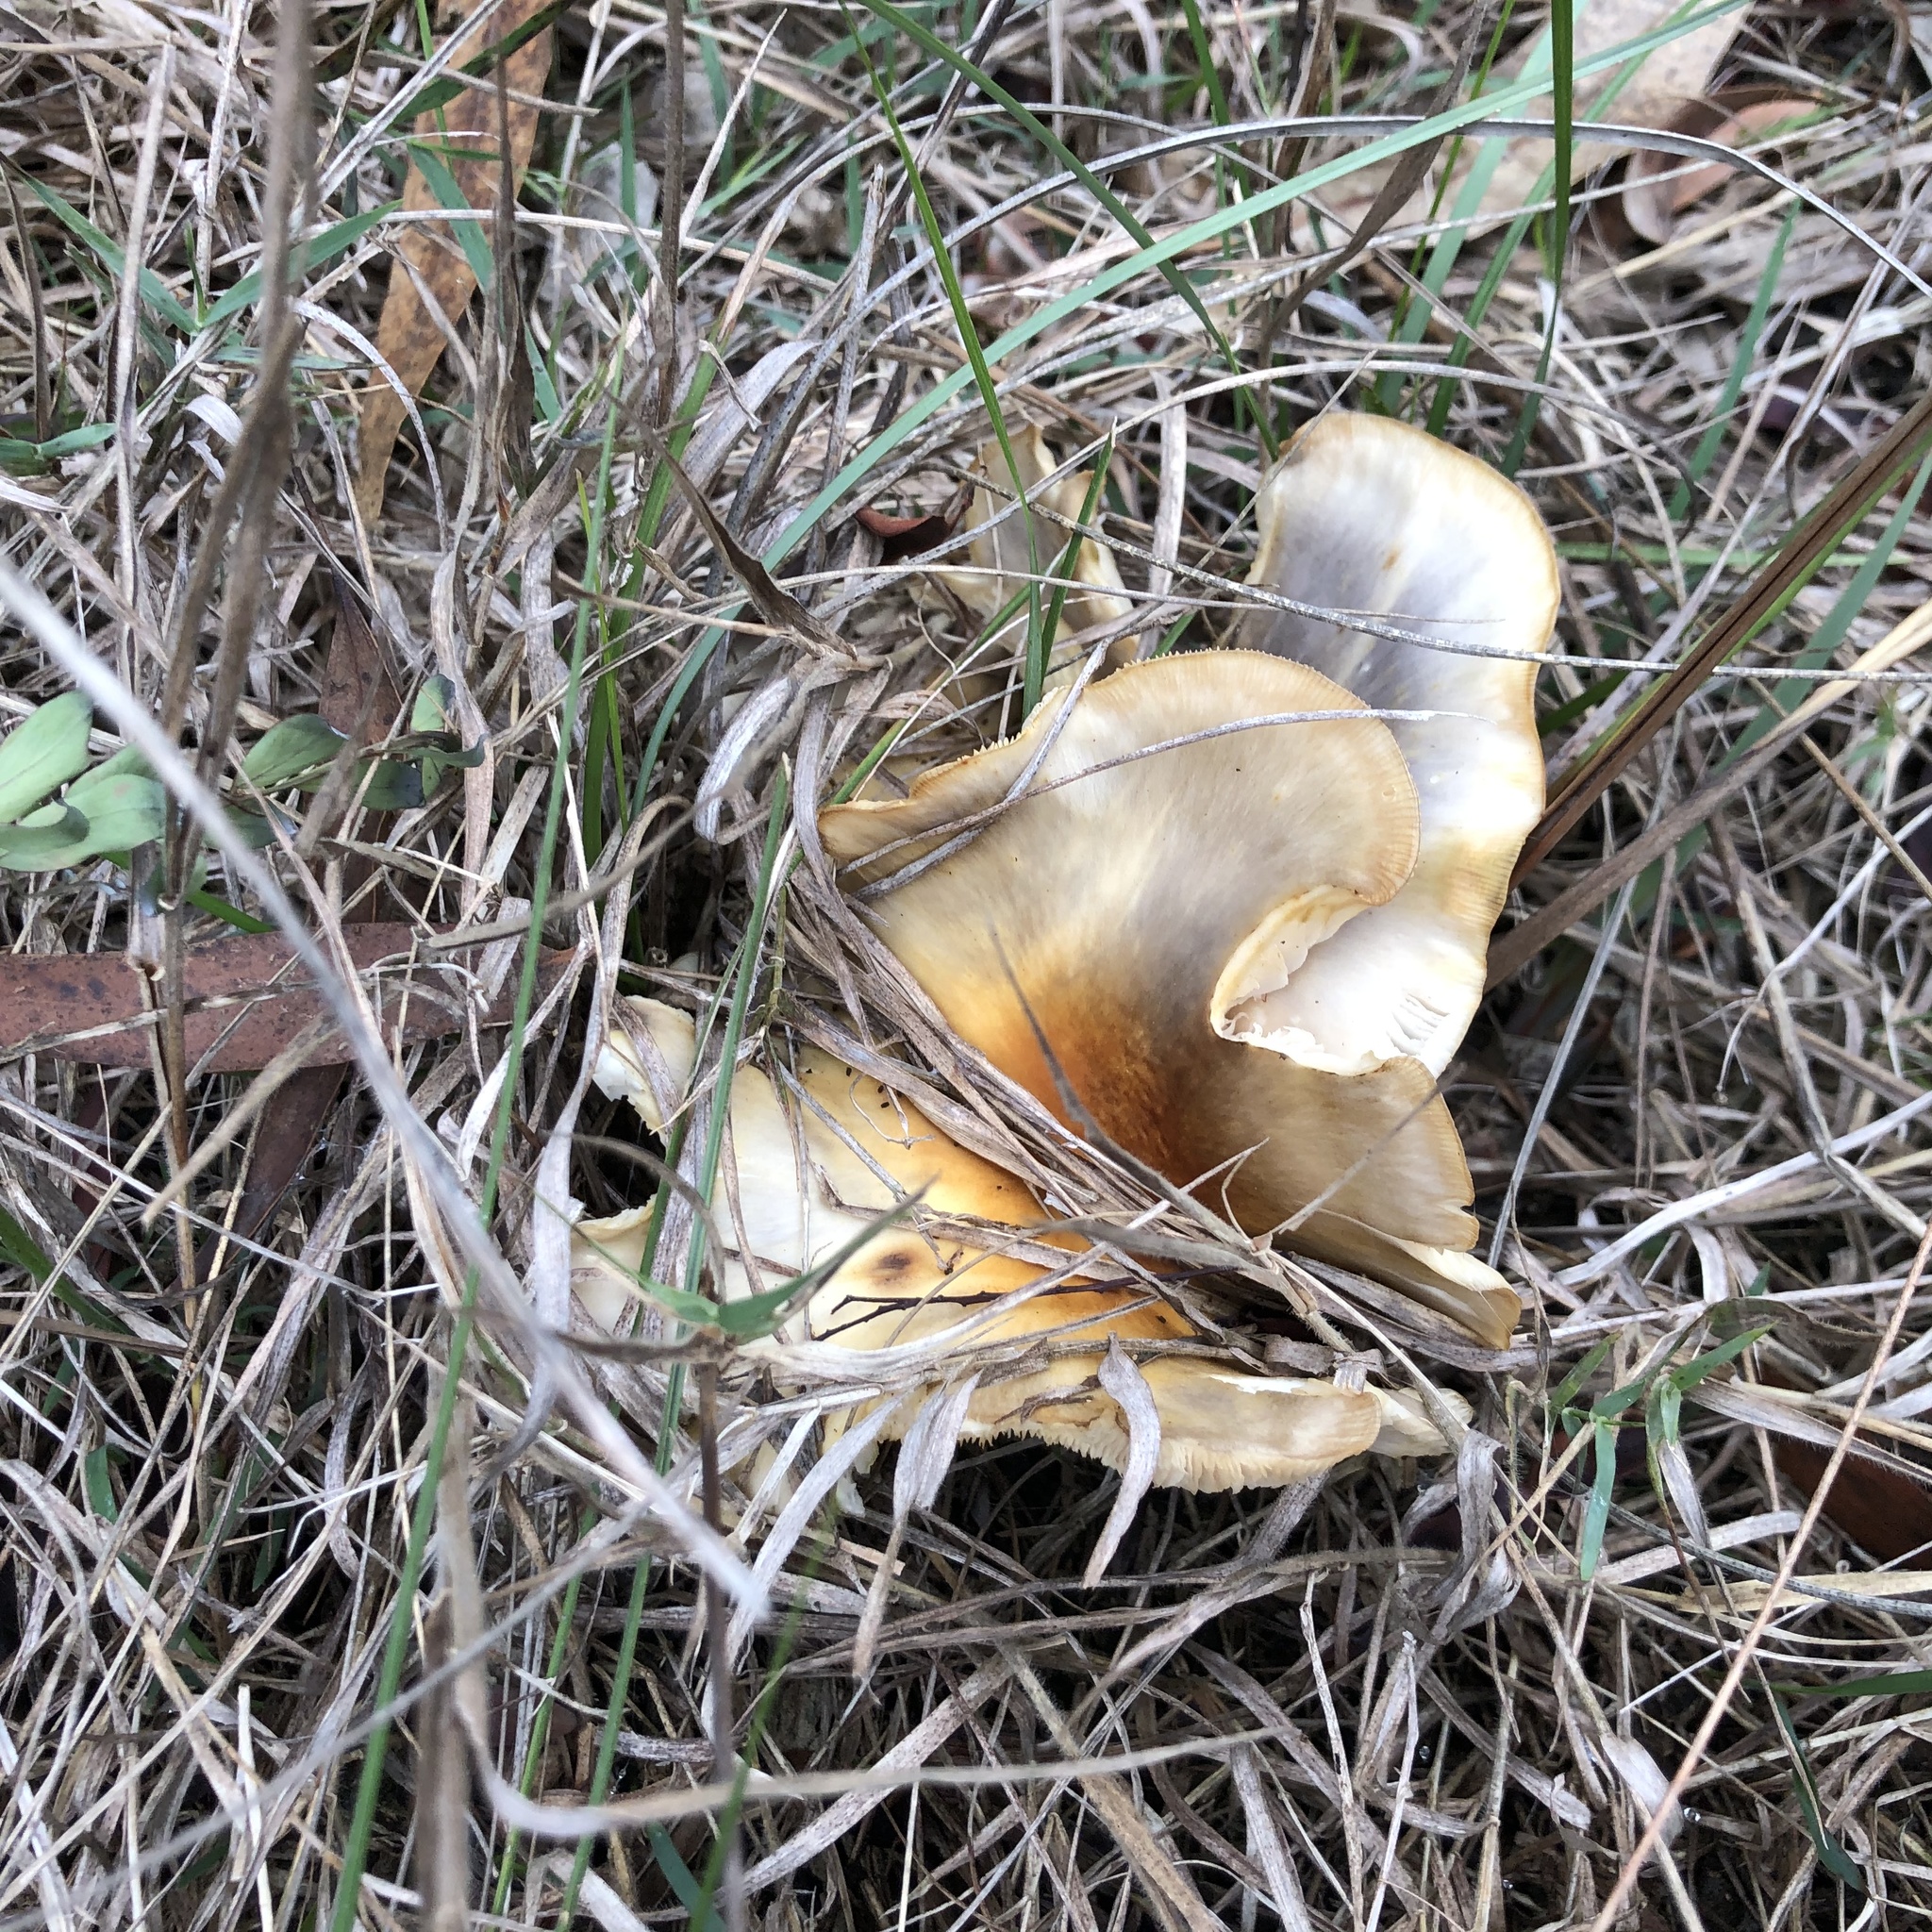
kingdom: Fungi
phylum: Basidiomycota
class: Agaricomycetes
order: Agaricales
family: Omphalotaceae
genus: Omphalotus
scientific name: Omphalotus nidiformis
